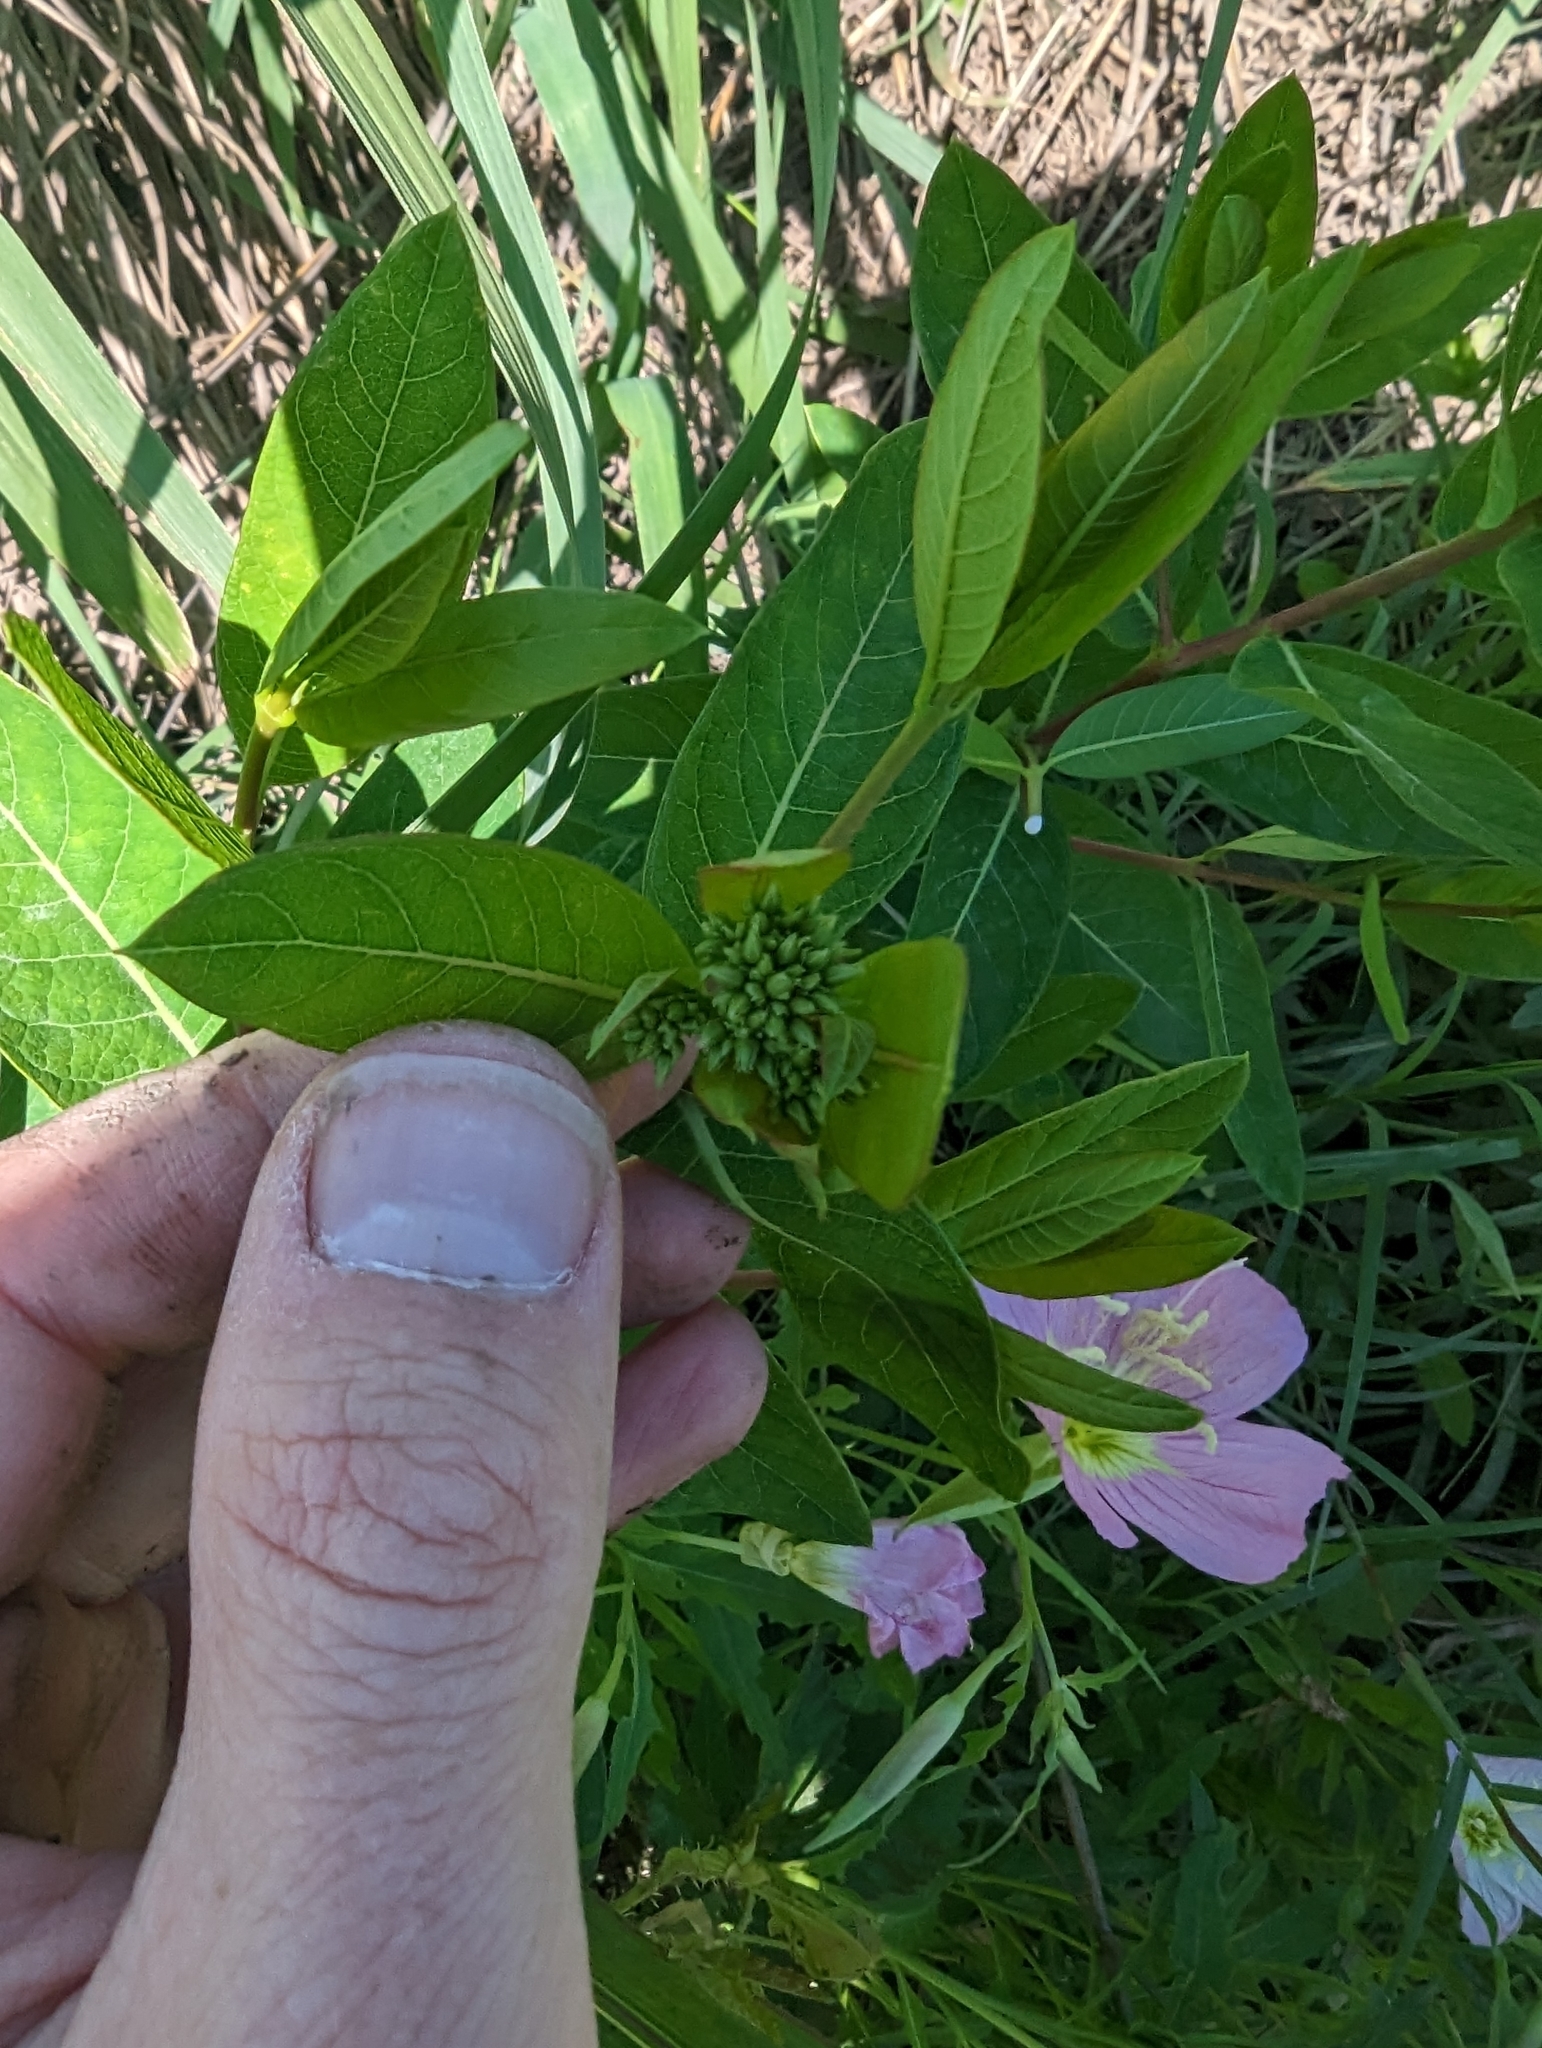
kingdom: Plantae
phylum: Tracheophyta
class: Magnoliopsida
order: Gentianales
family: Apocynaceae
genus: Apocynum
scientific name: Apocynum cannabinum
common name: Hemp dogbane
